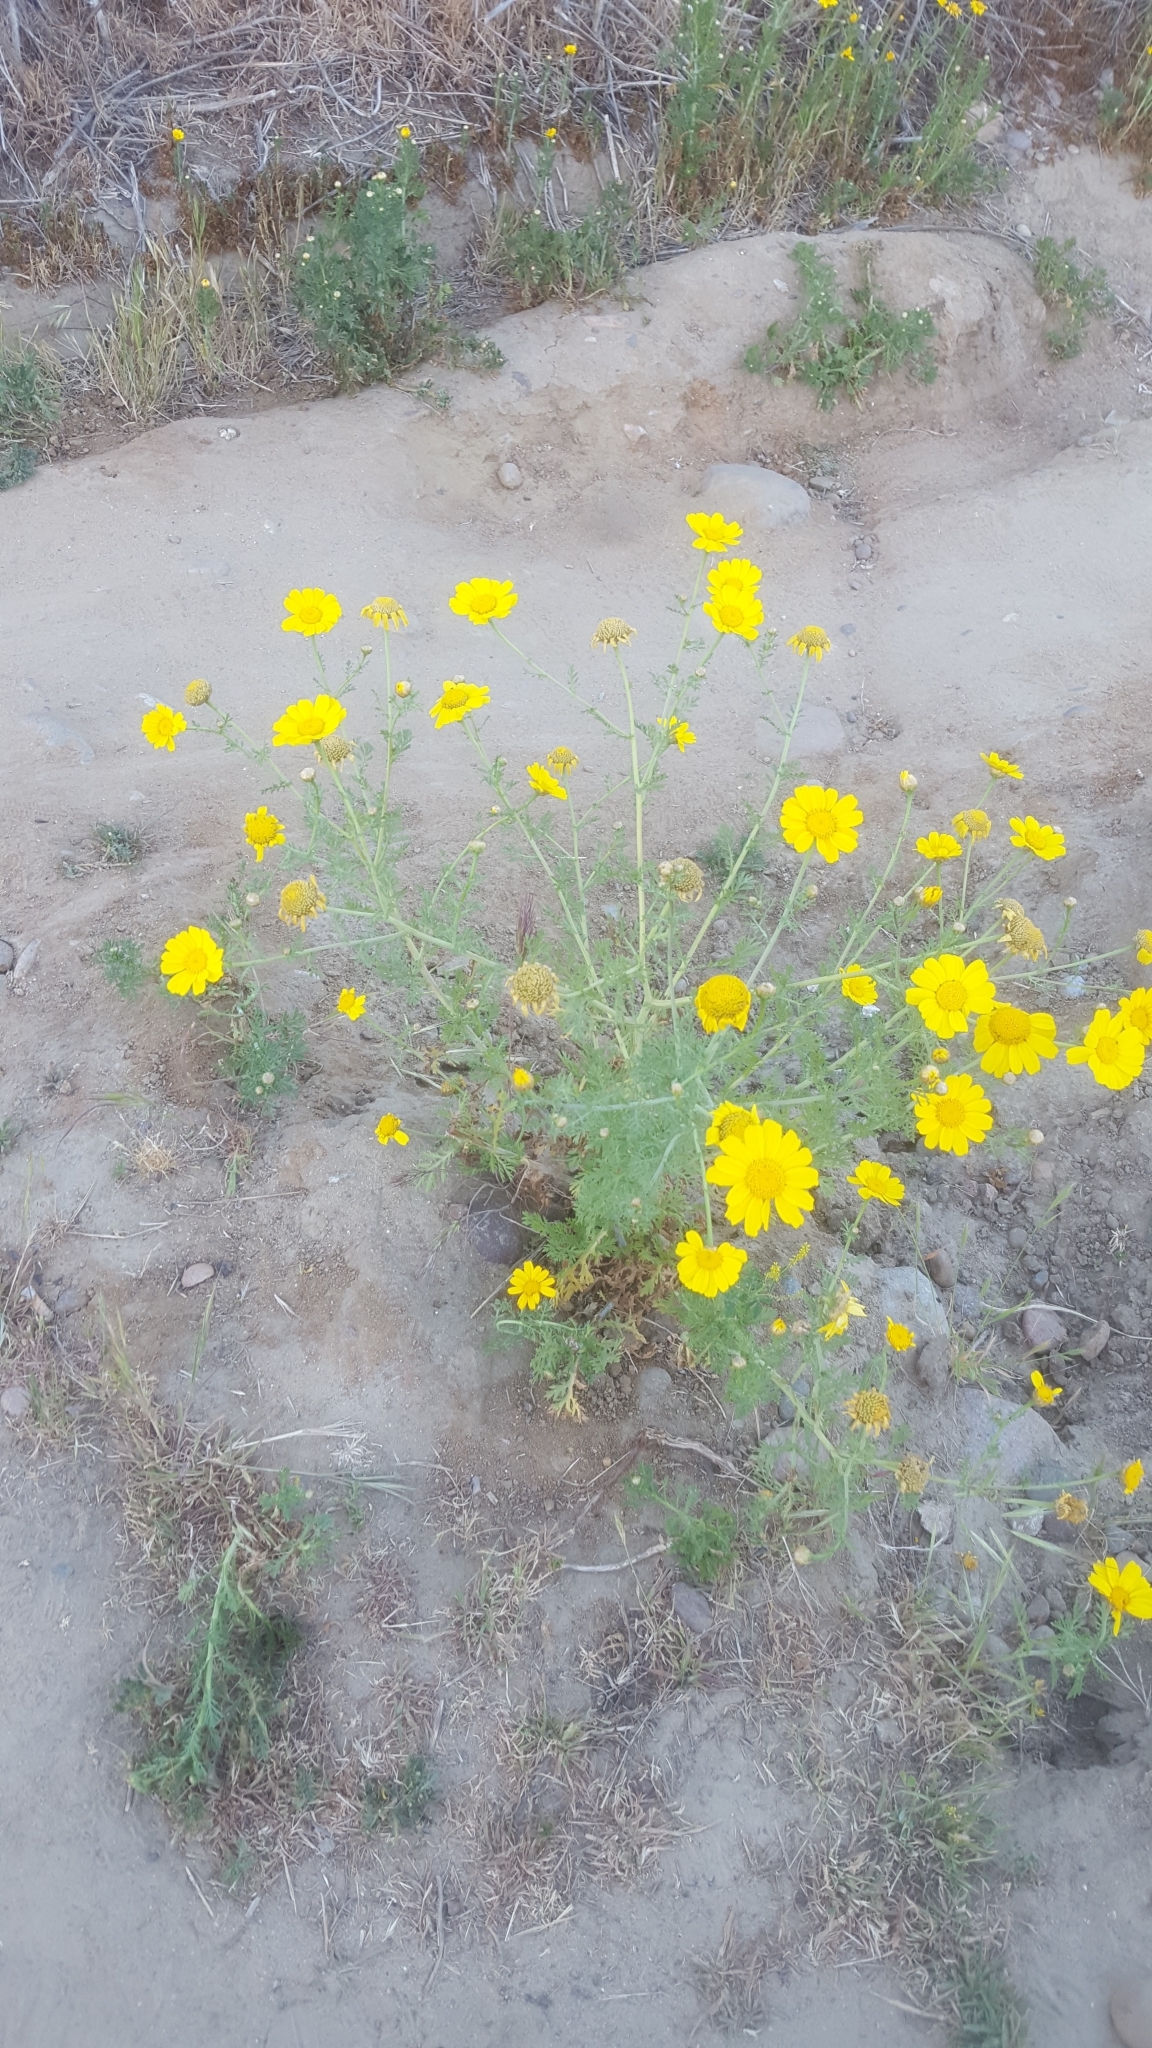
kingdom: Plantae
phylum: Tracheophyta
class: Magnoliopsida
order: Asterales
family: Asteraceae
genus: Glebionis
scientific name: Glebionis coronaria
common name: Crowndaisy
